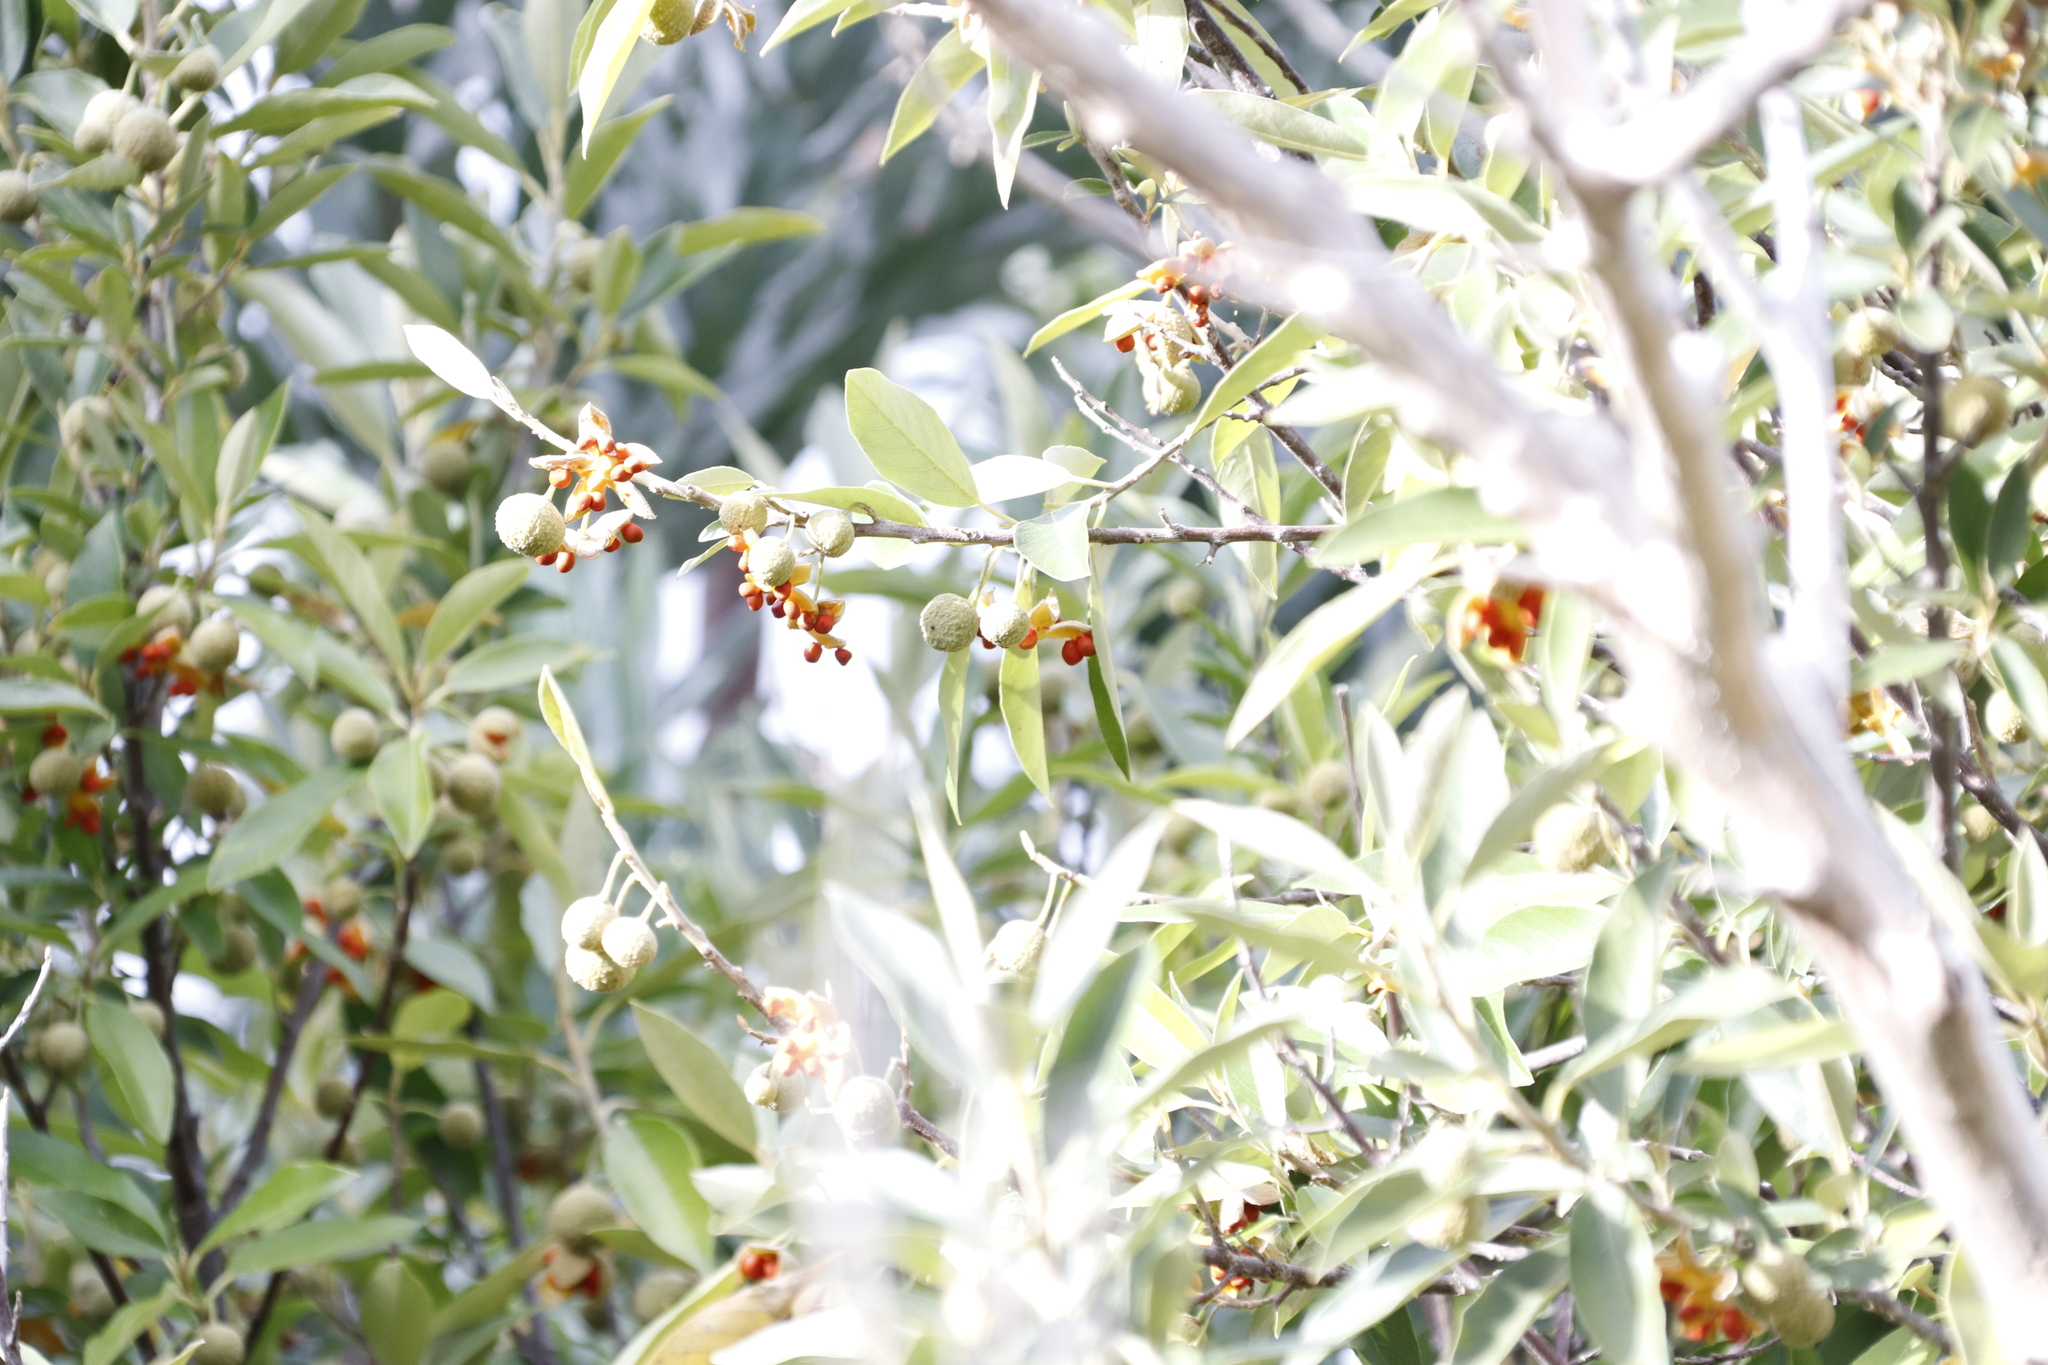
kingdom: Plantae
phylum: Tracheophyta
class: Magnoliopsida
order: Malpighiales
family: Achariaceae
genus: Kiggelaria
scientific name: Kiggelaria africana
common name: Wild peach
